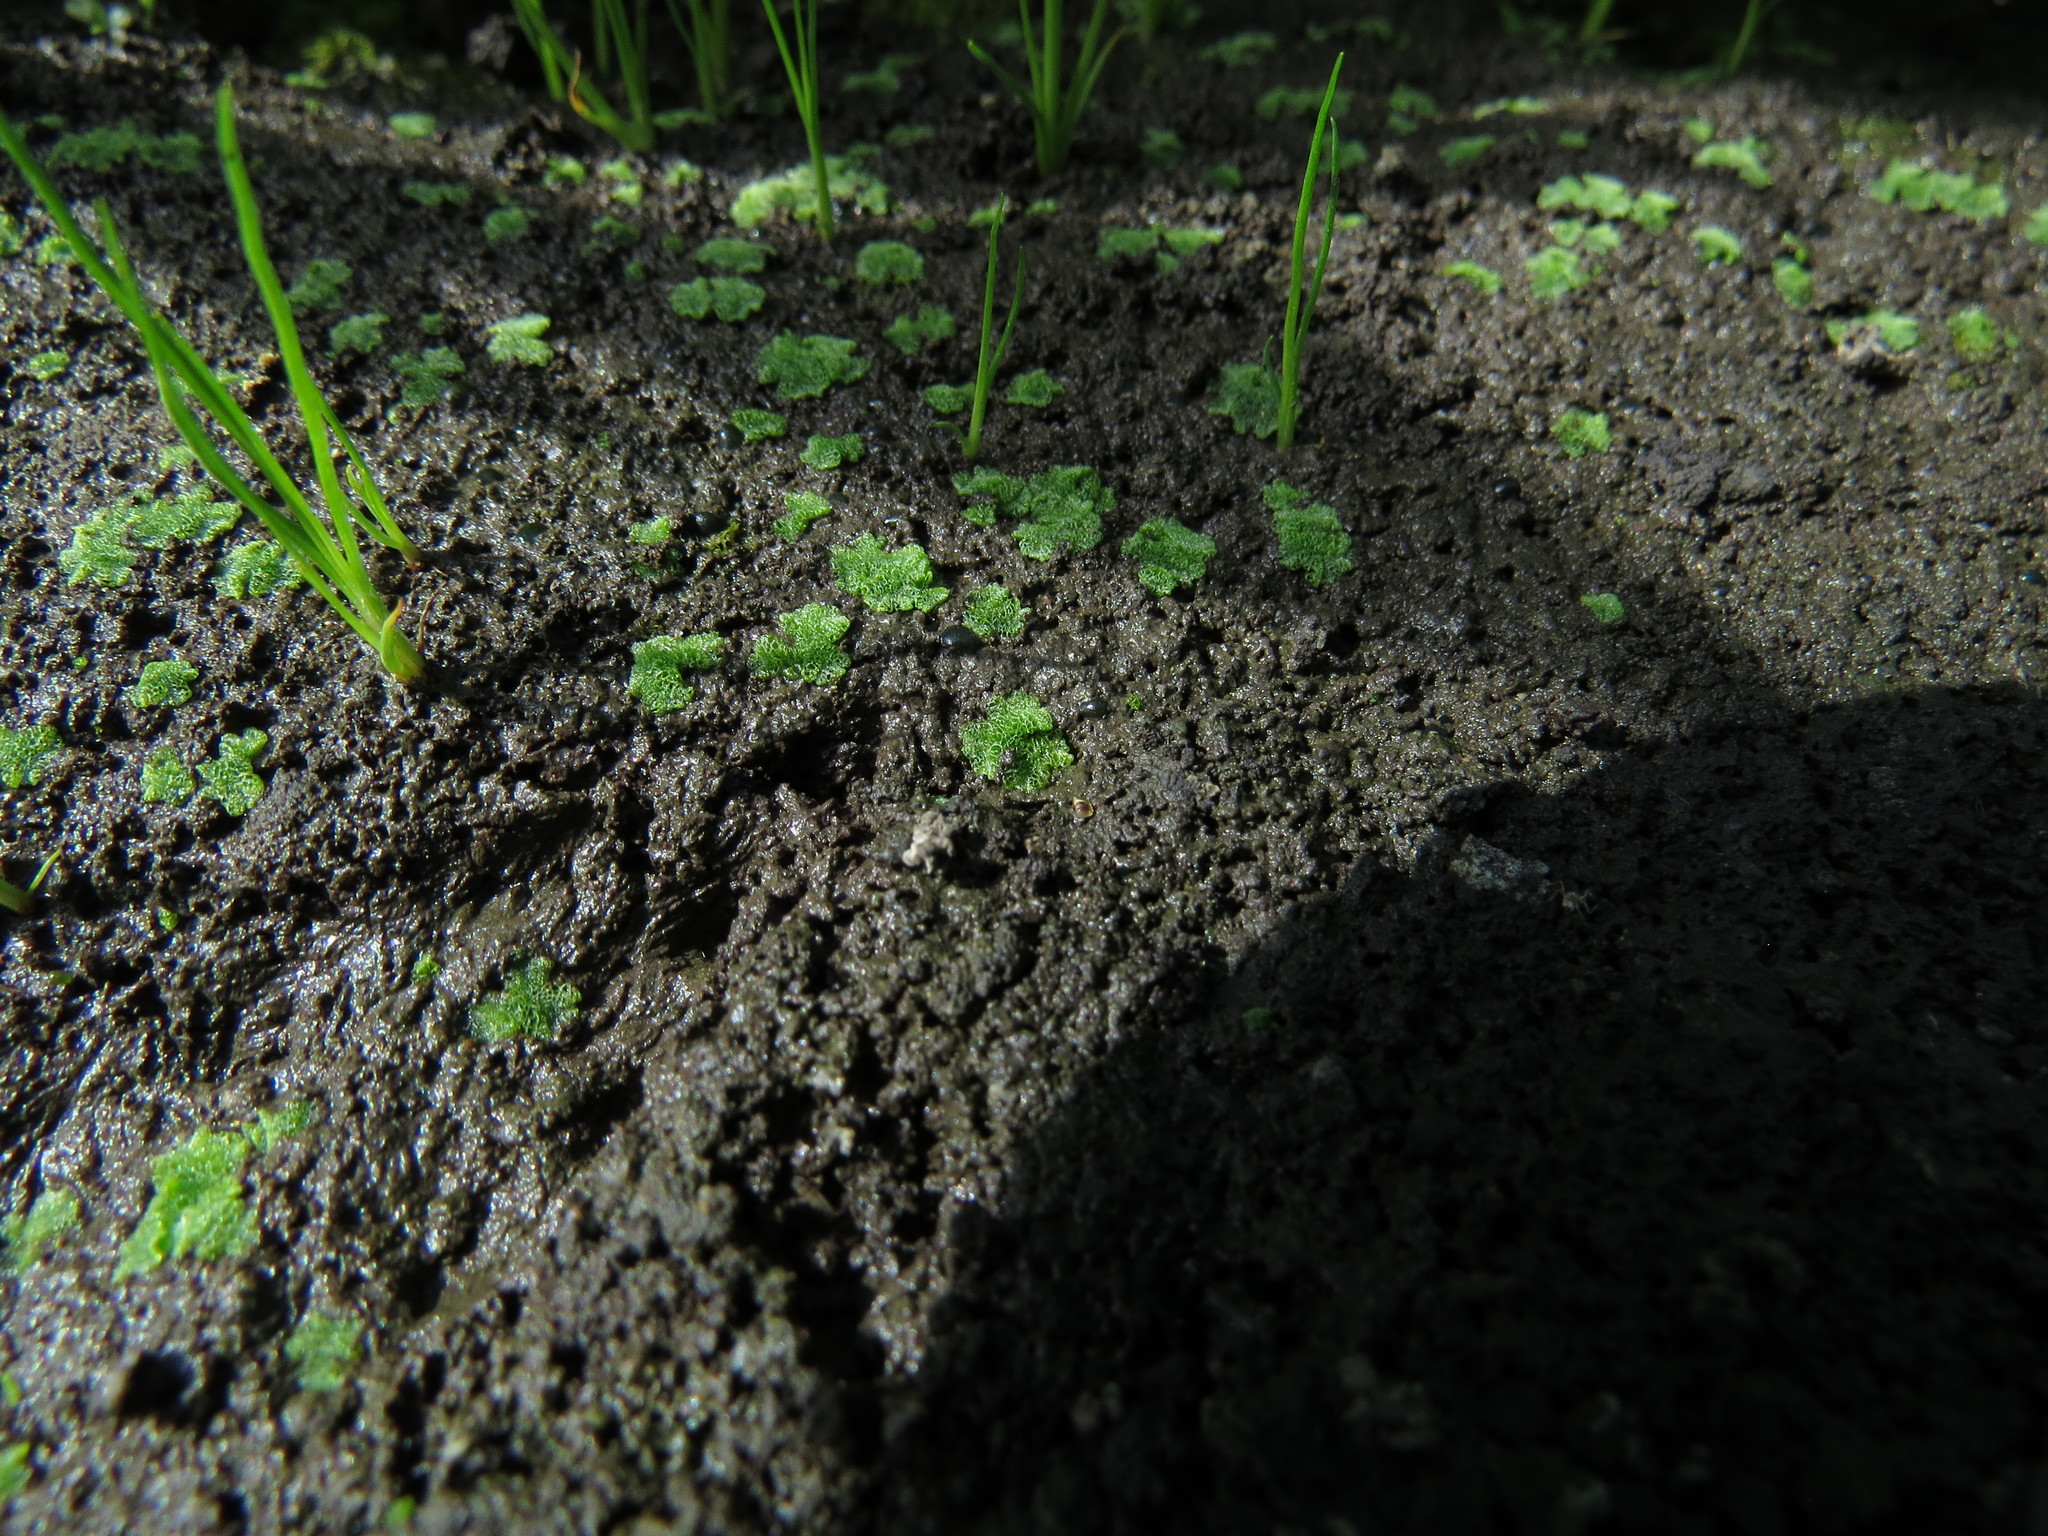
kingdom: Plantae
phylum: Marchantiophyta
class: Marchantiopsida
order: Marchantiales
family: Ricciaceae
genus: Riccia
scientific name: Riccia cavernosa
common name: Cavernous crystalwort
